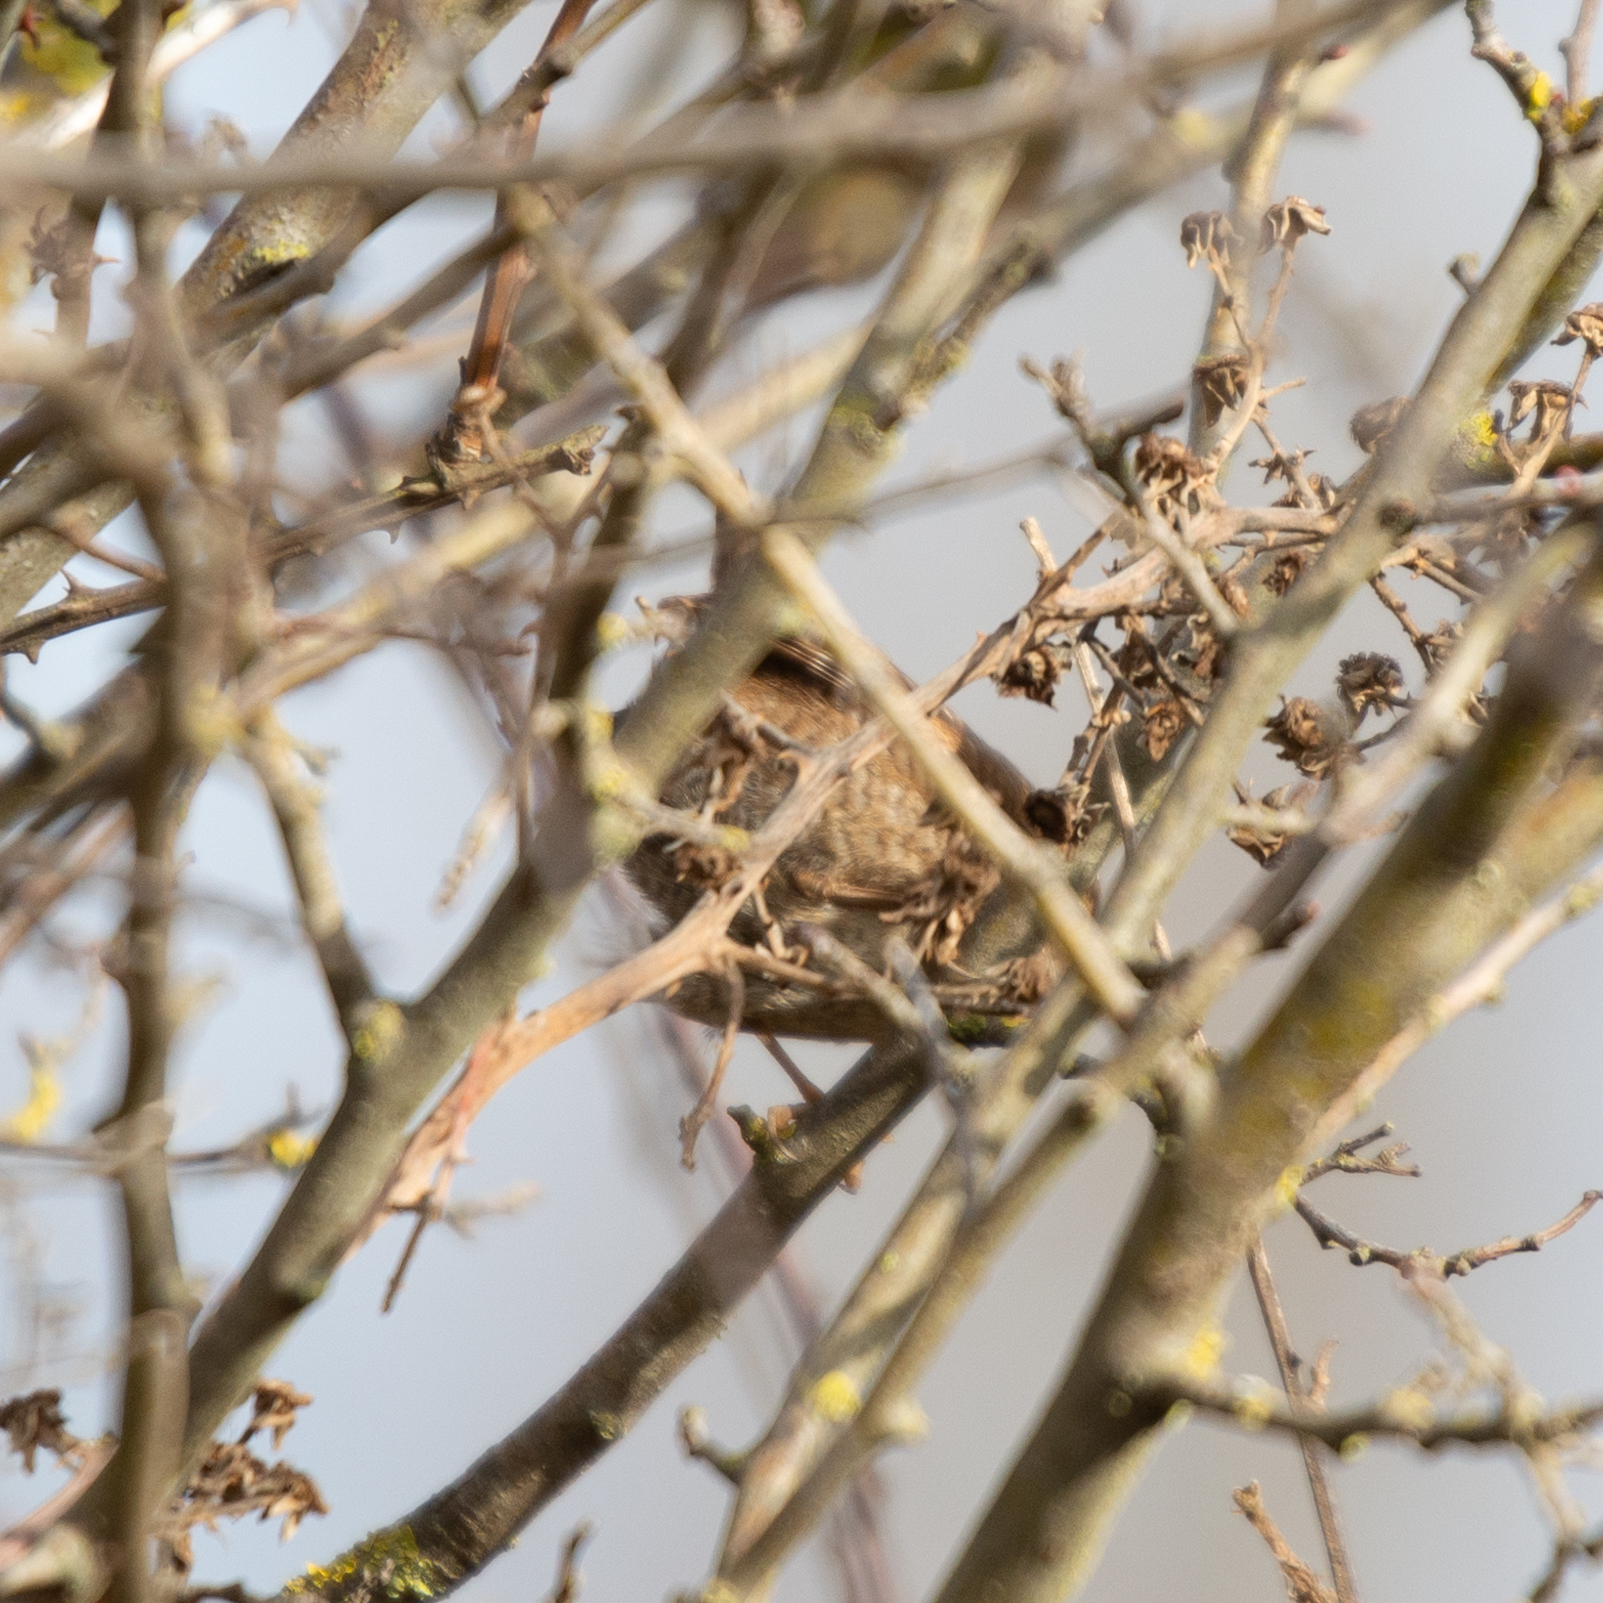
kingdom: Animalia
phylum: Chordata
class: Aves
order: Passeriformes
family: Troglodytidae
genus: Troglodytes
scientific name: Troglodytes troglodytes
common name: Eurasian wren
